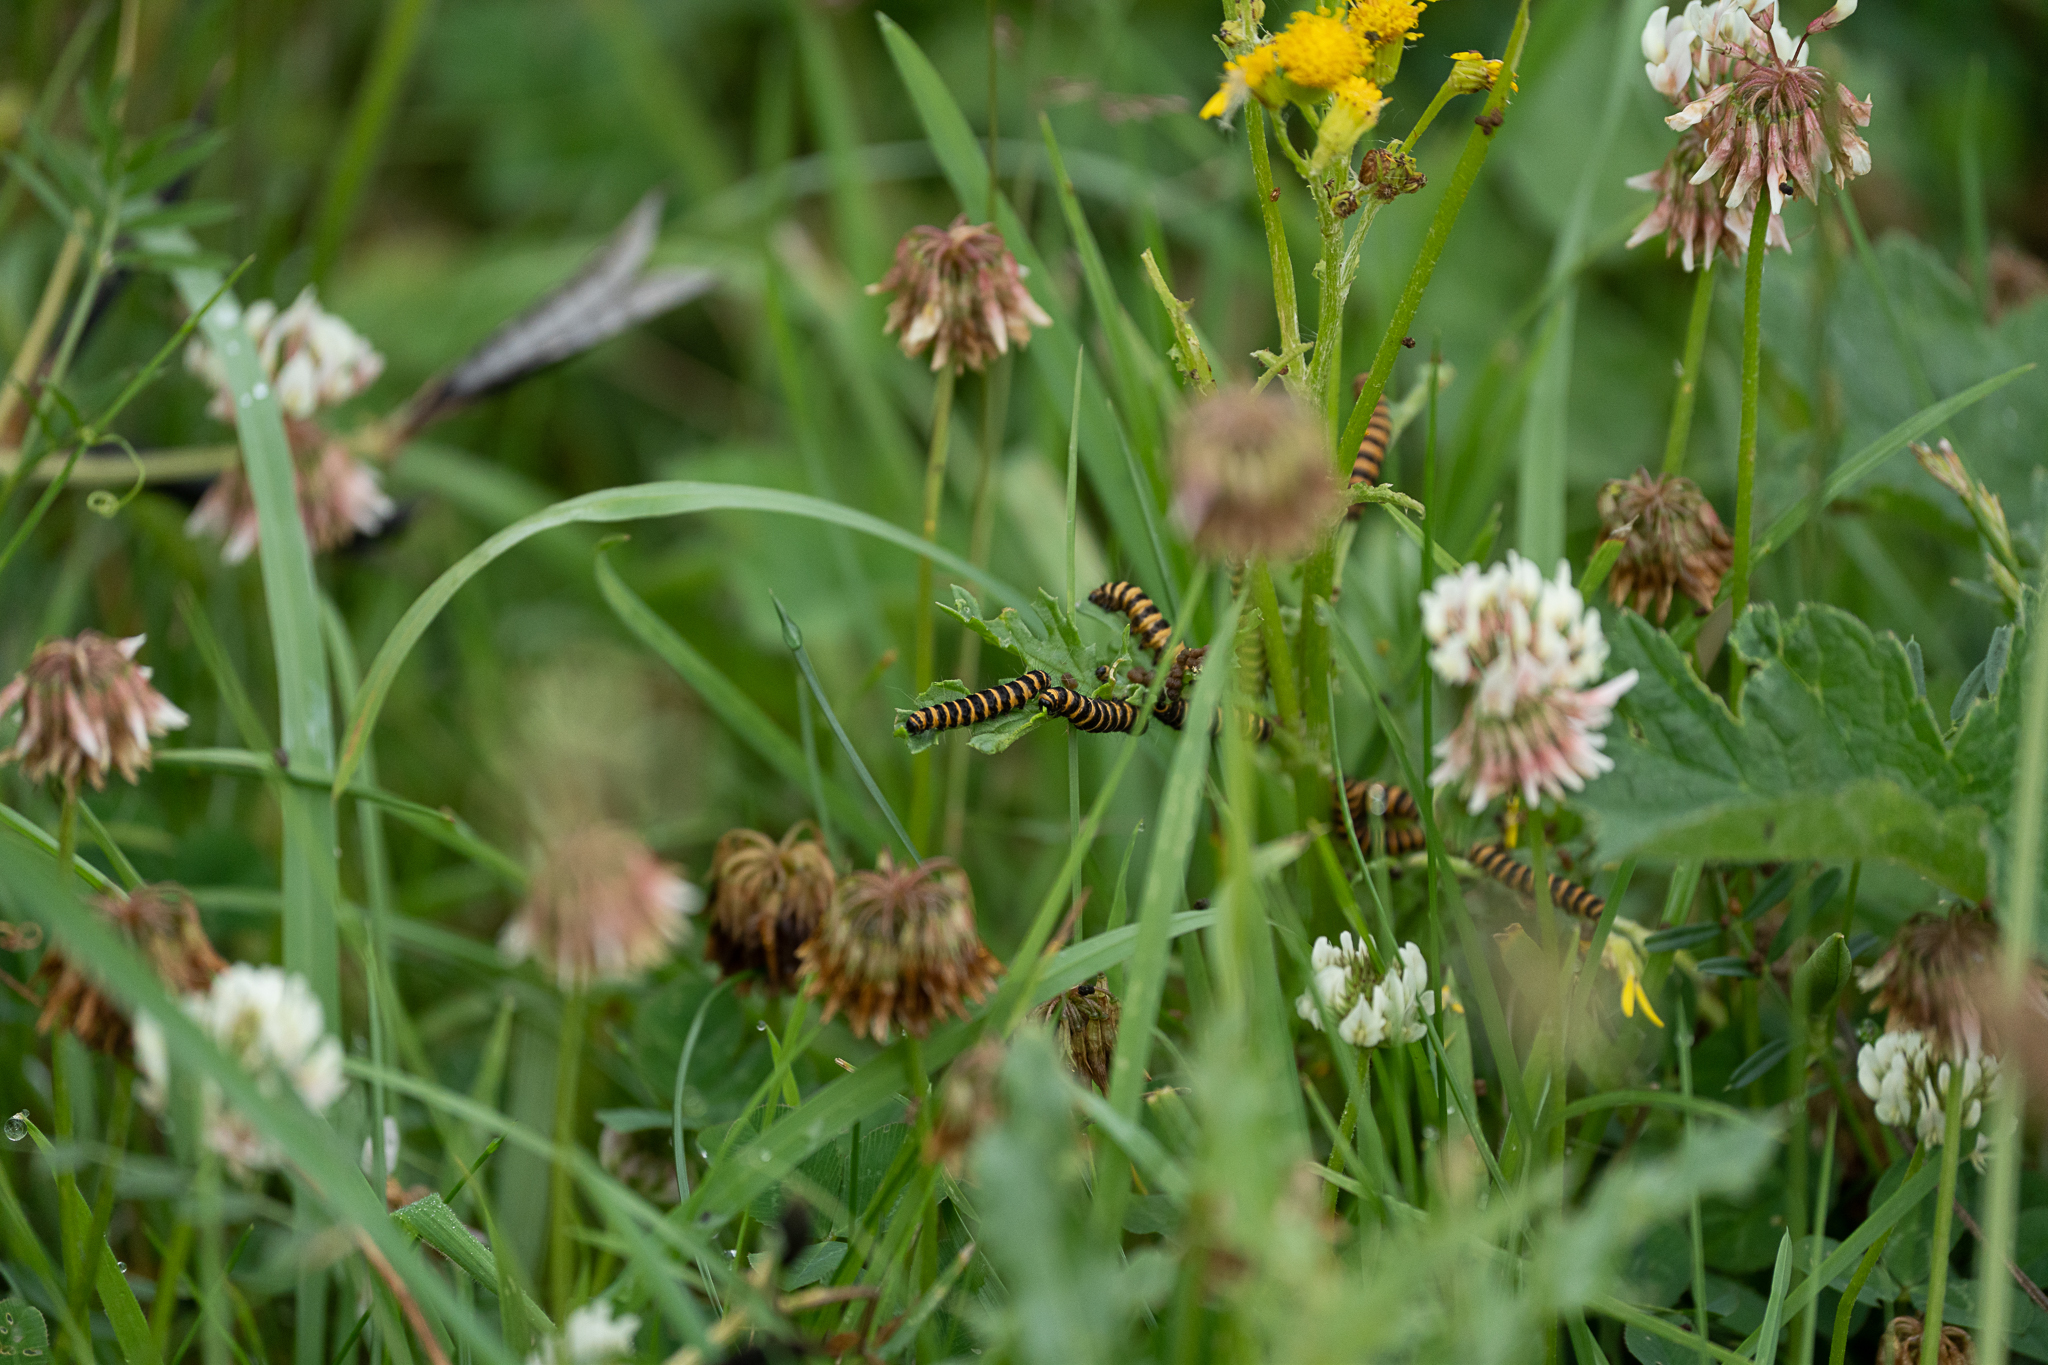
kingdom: Animalia
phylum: Arthropoda
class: Insecta
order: Lepidoptera
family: Erebidae
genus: Tyria
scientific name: Tyria jacobaeae
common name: Cinnabar
